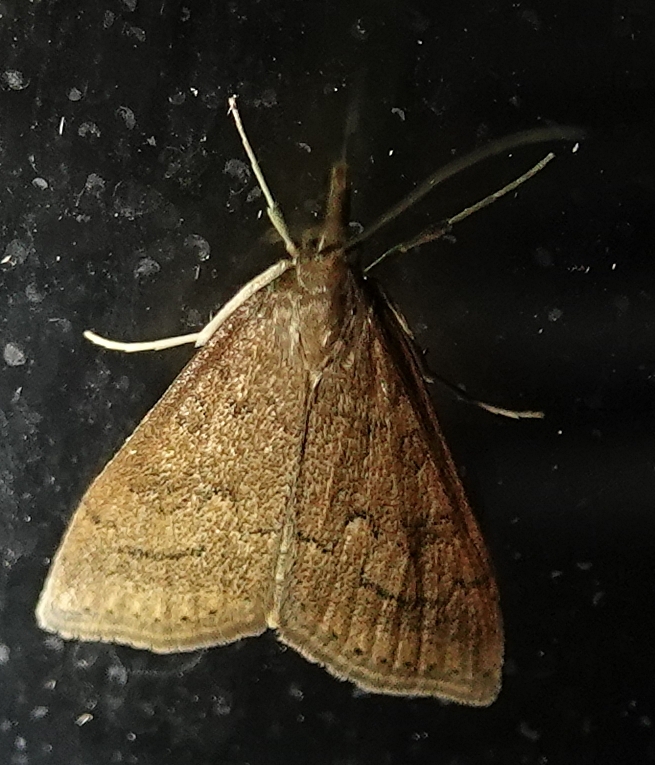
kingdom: Animalia
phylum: Arthropoda
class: Insecta
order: Lepidoptera
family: Crambidae
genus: Udea
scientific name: Udea rubigalis
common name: Celery leaftier moth
